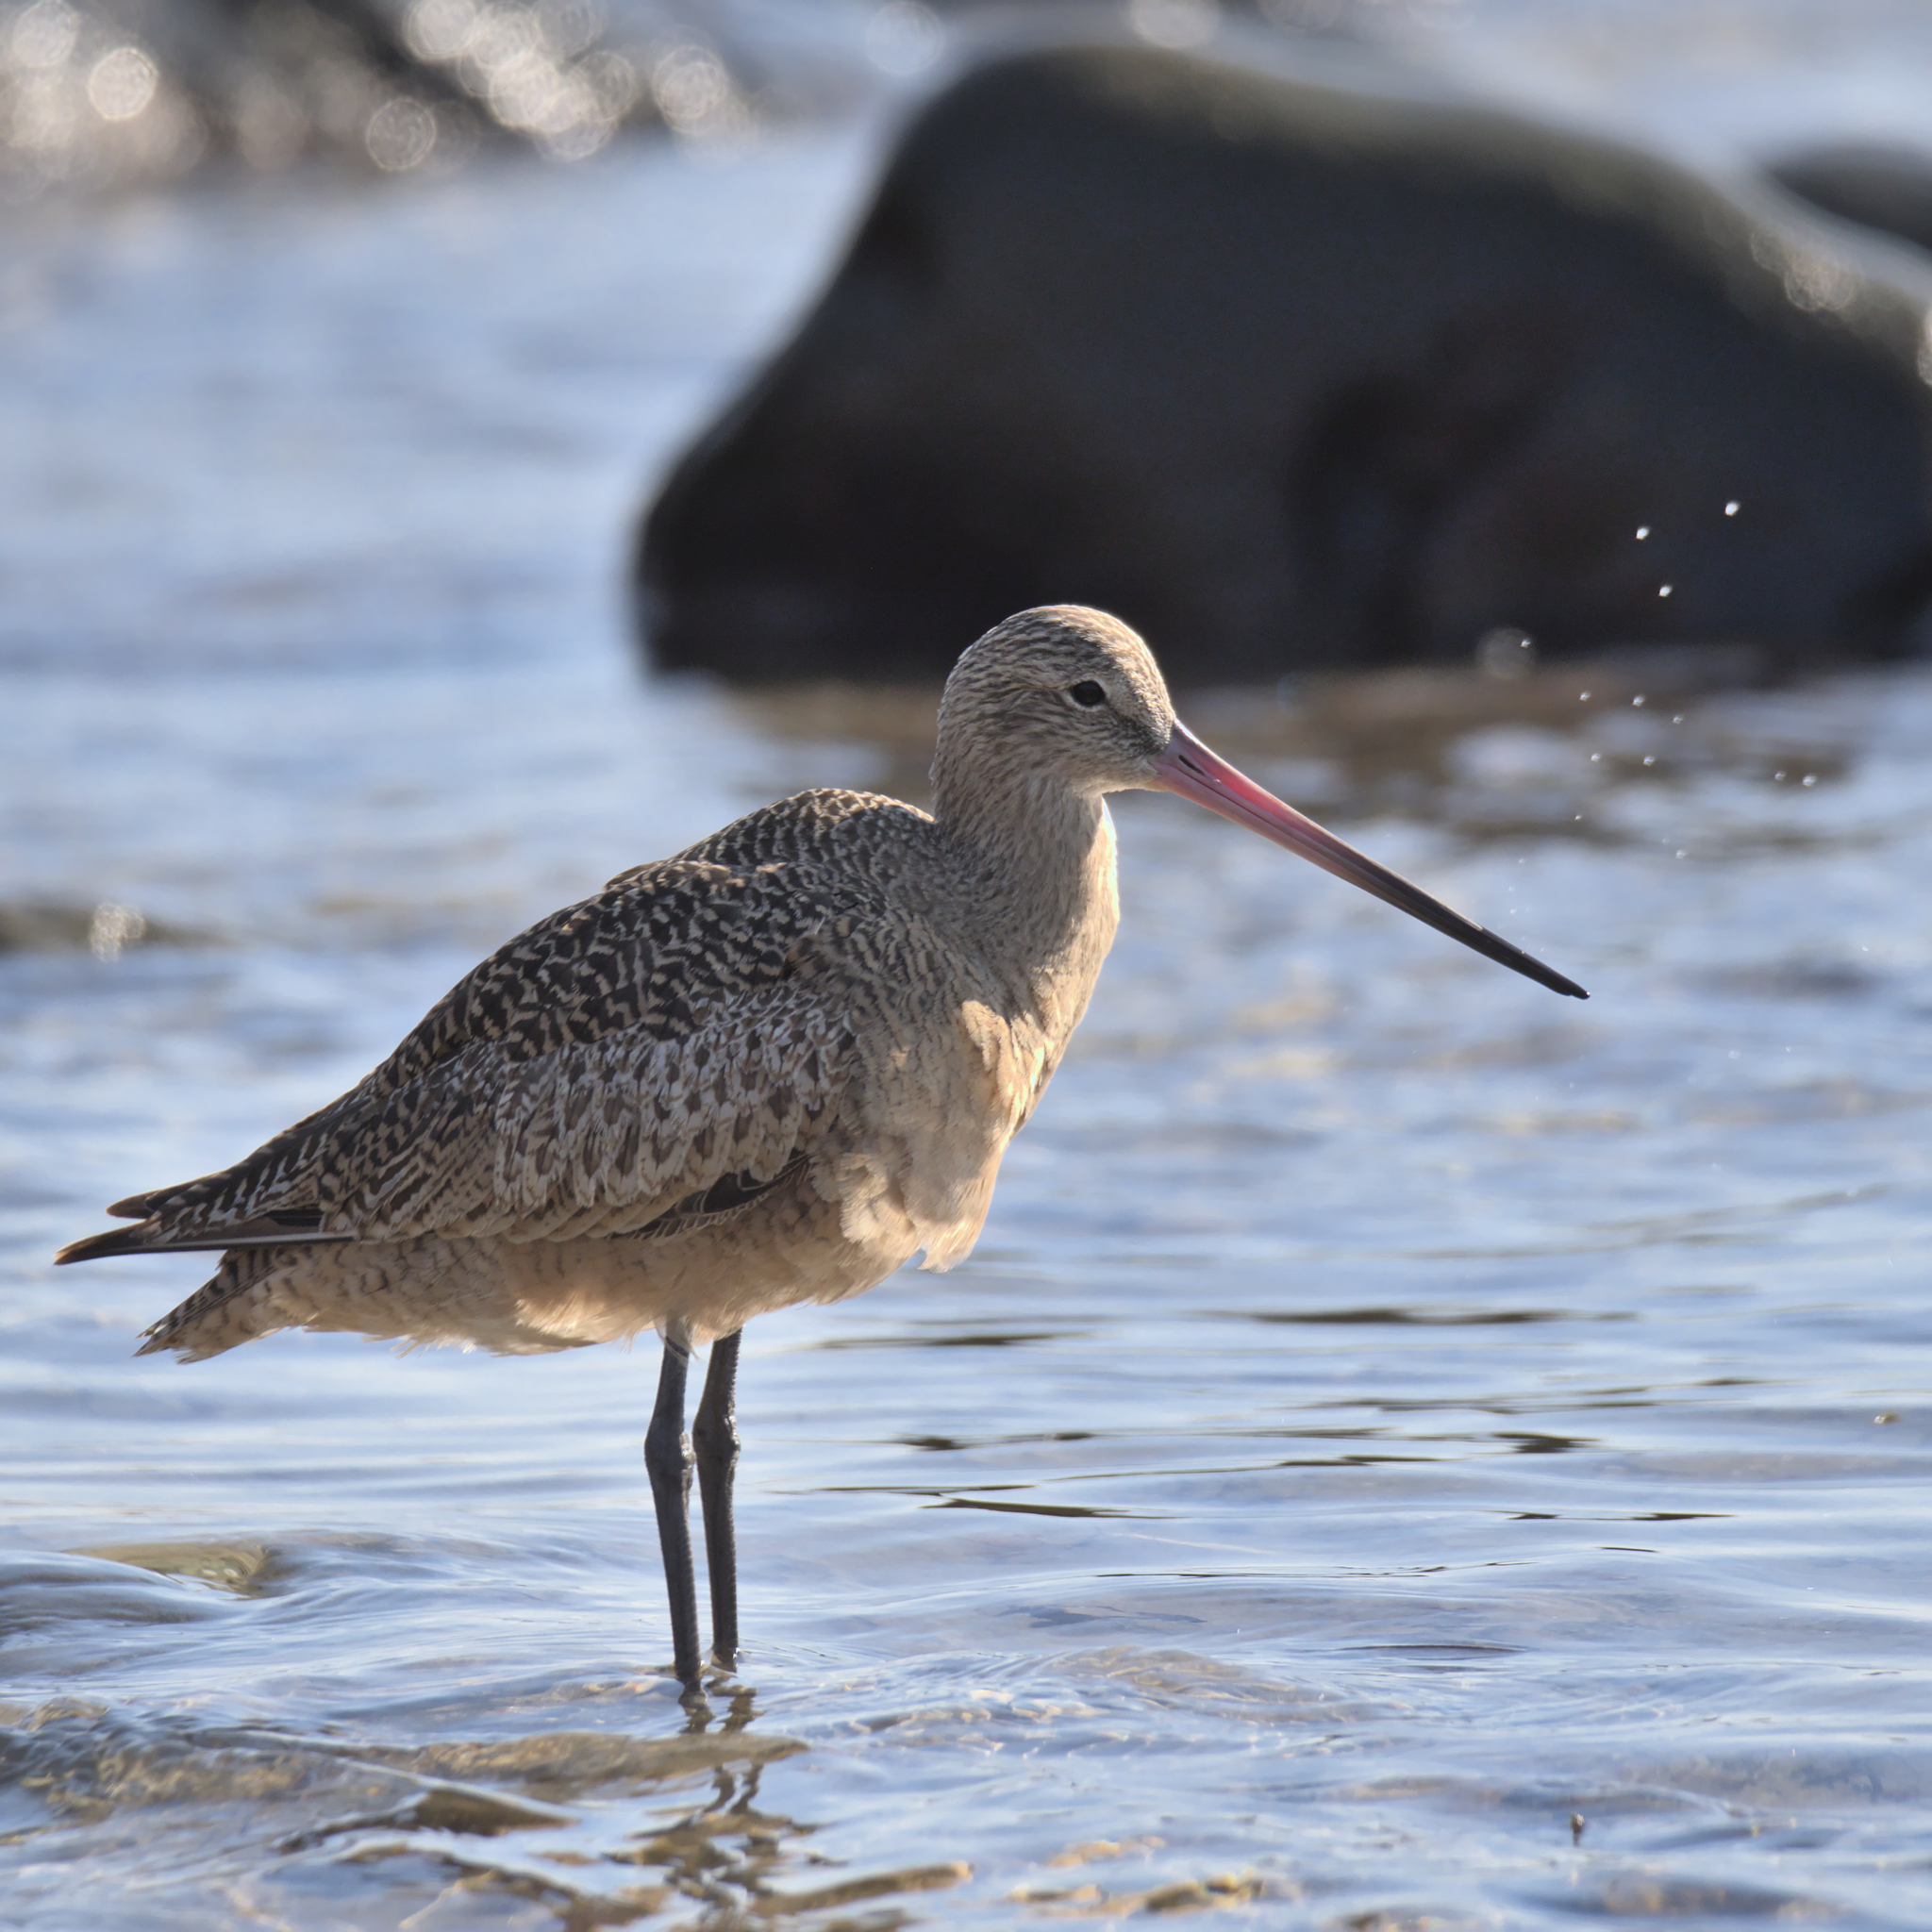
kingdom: Animalia
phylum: Chordata
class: Aves
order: Charadriiformes
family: Scolopacidae
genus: Limosa
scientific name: Limosa fedoa
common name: Marbled godwit
